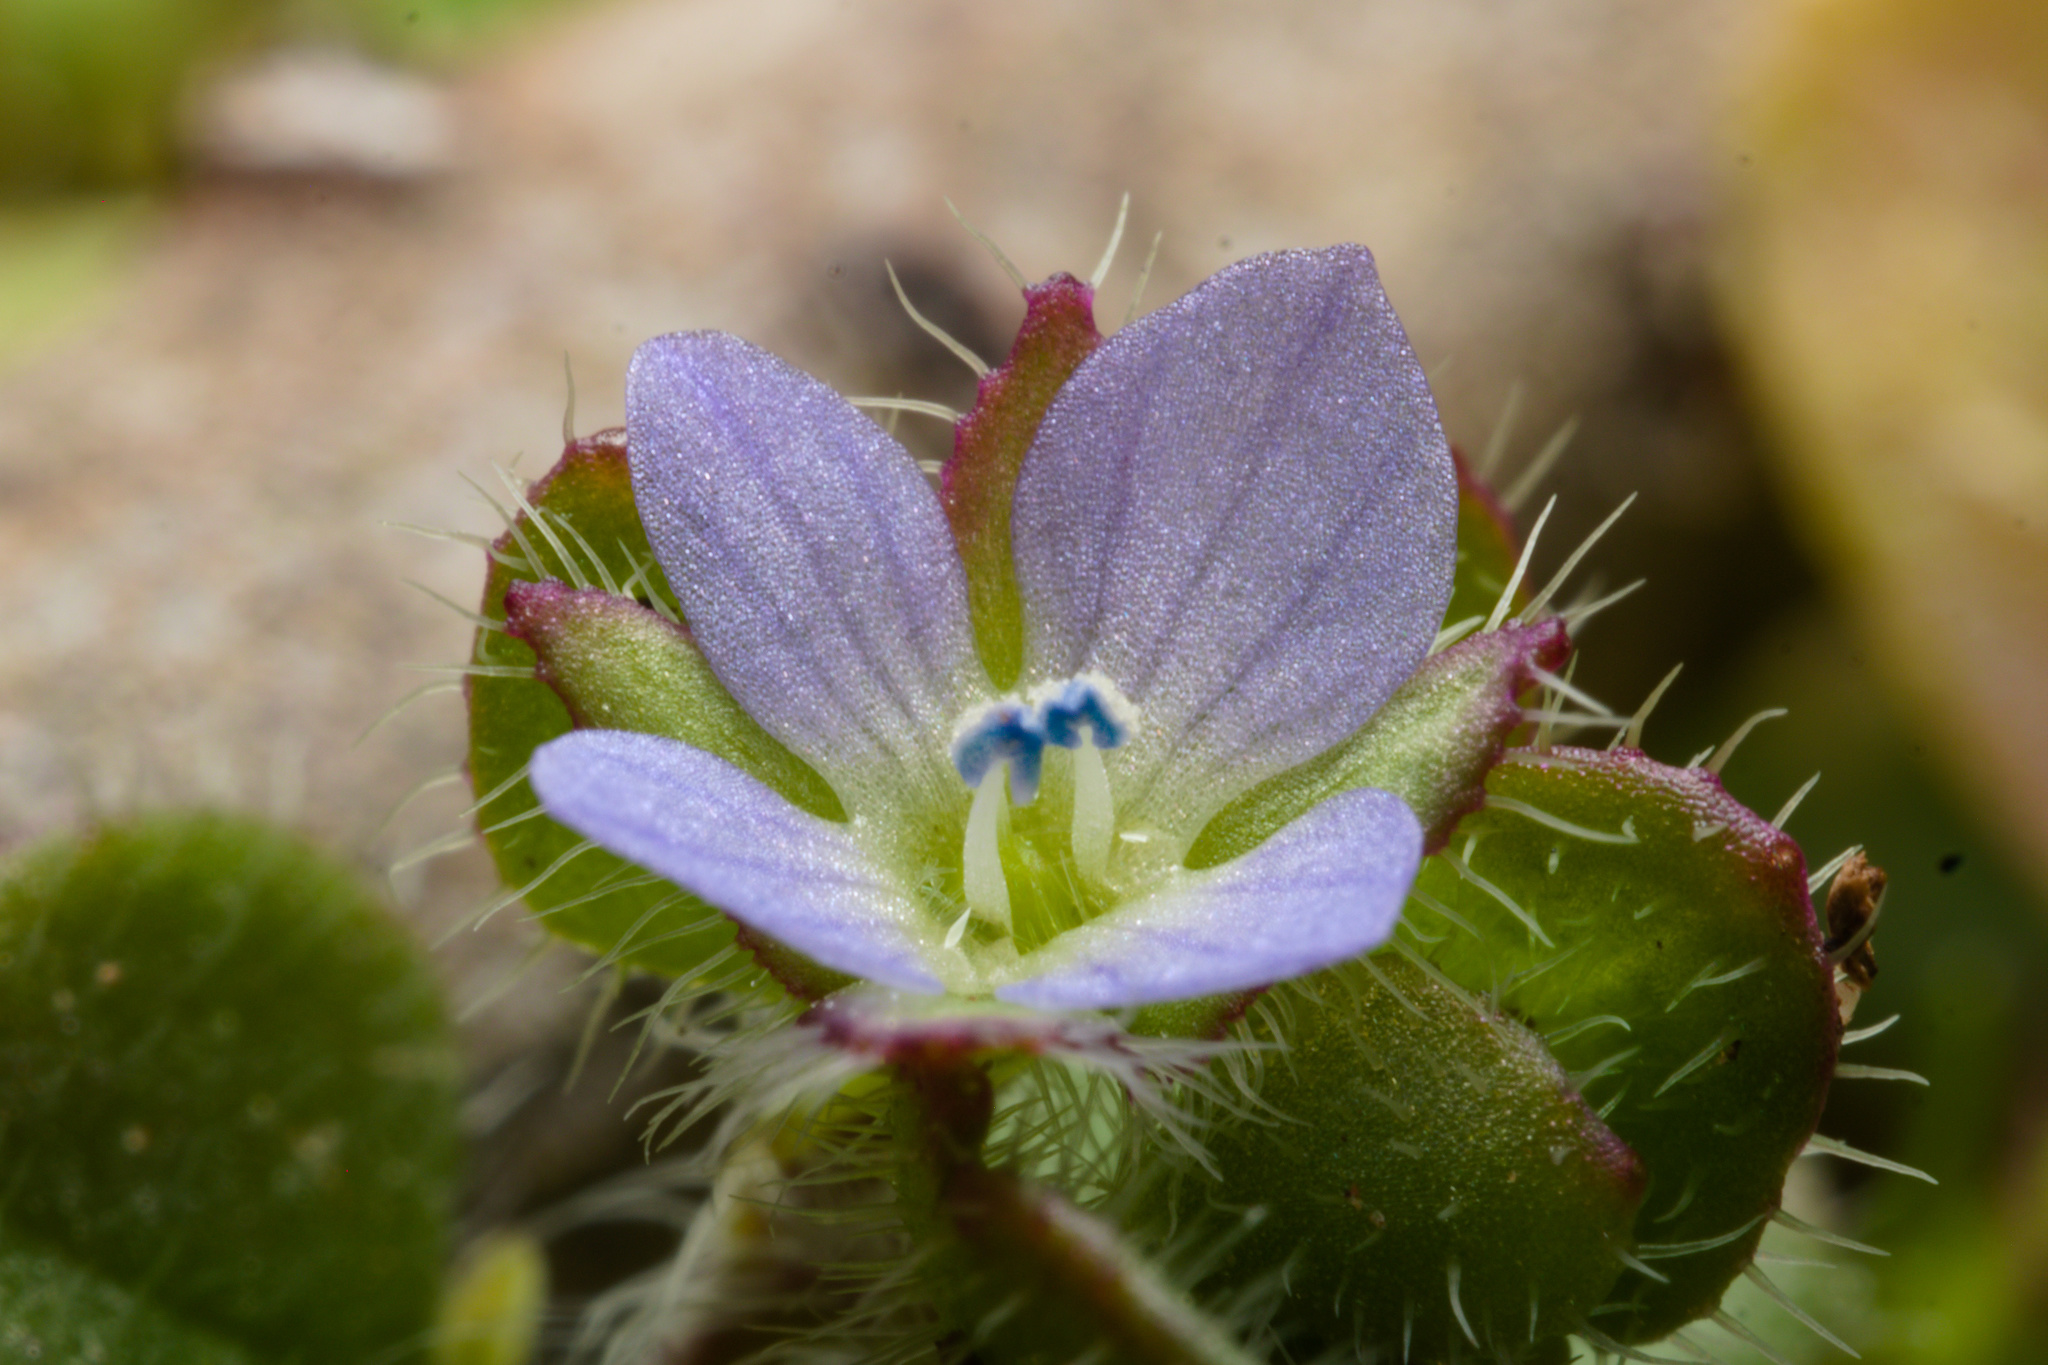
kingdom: Plantae
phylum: Tracheophyta
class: Magnoliopsida
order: Lamiales
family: Plantaginaceae
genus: Veronica
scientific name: Veronica hederifolia
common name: Ivy-leaved speedwell
